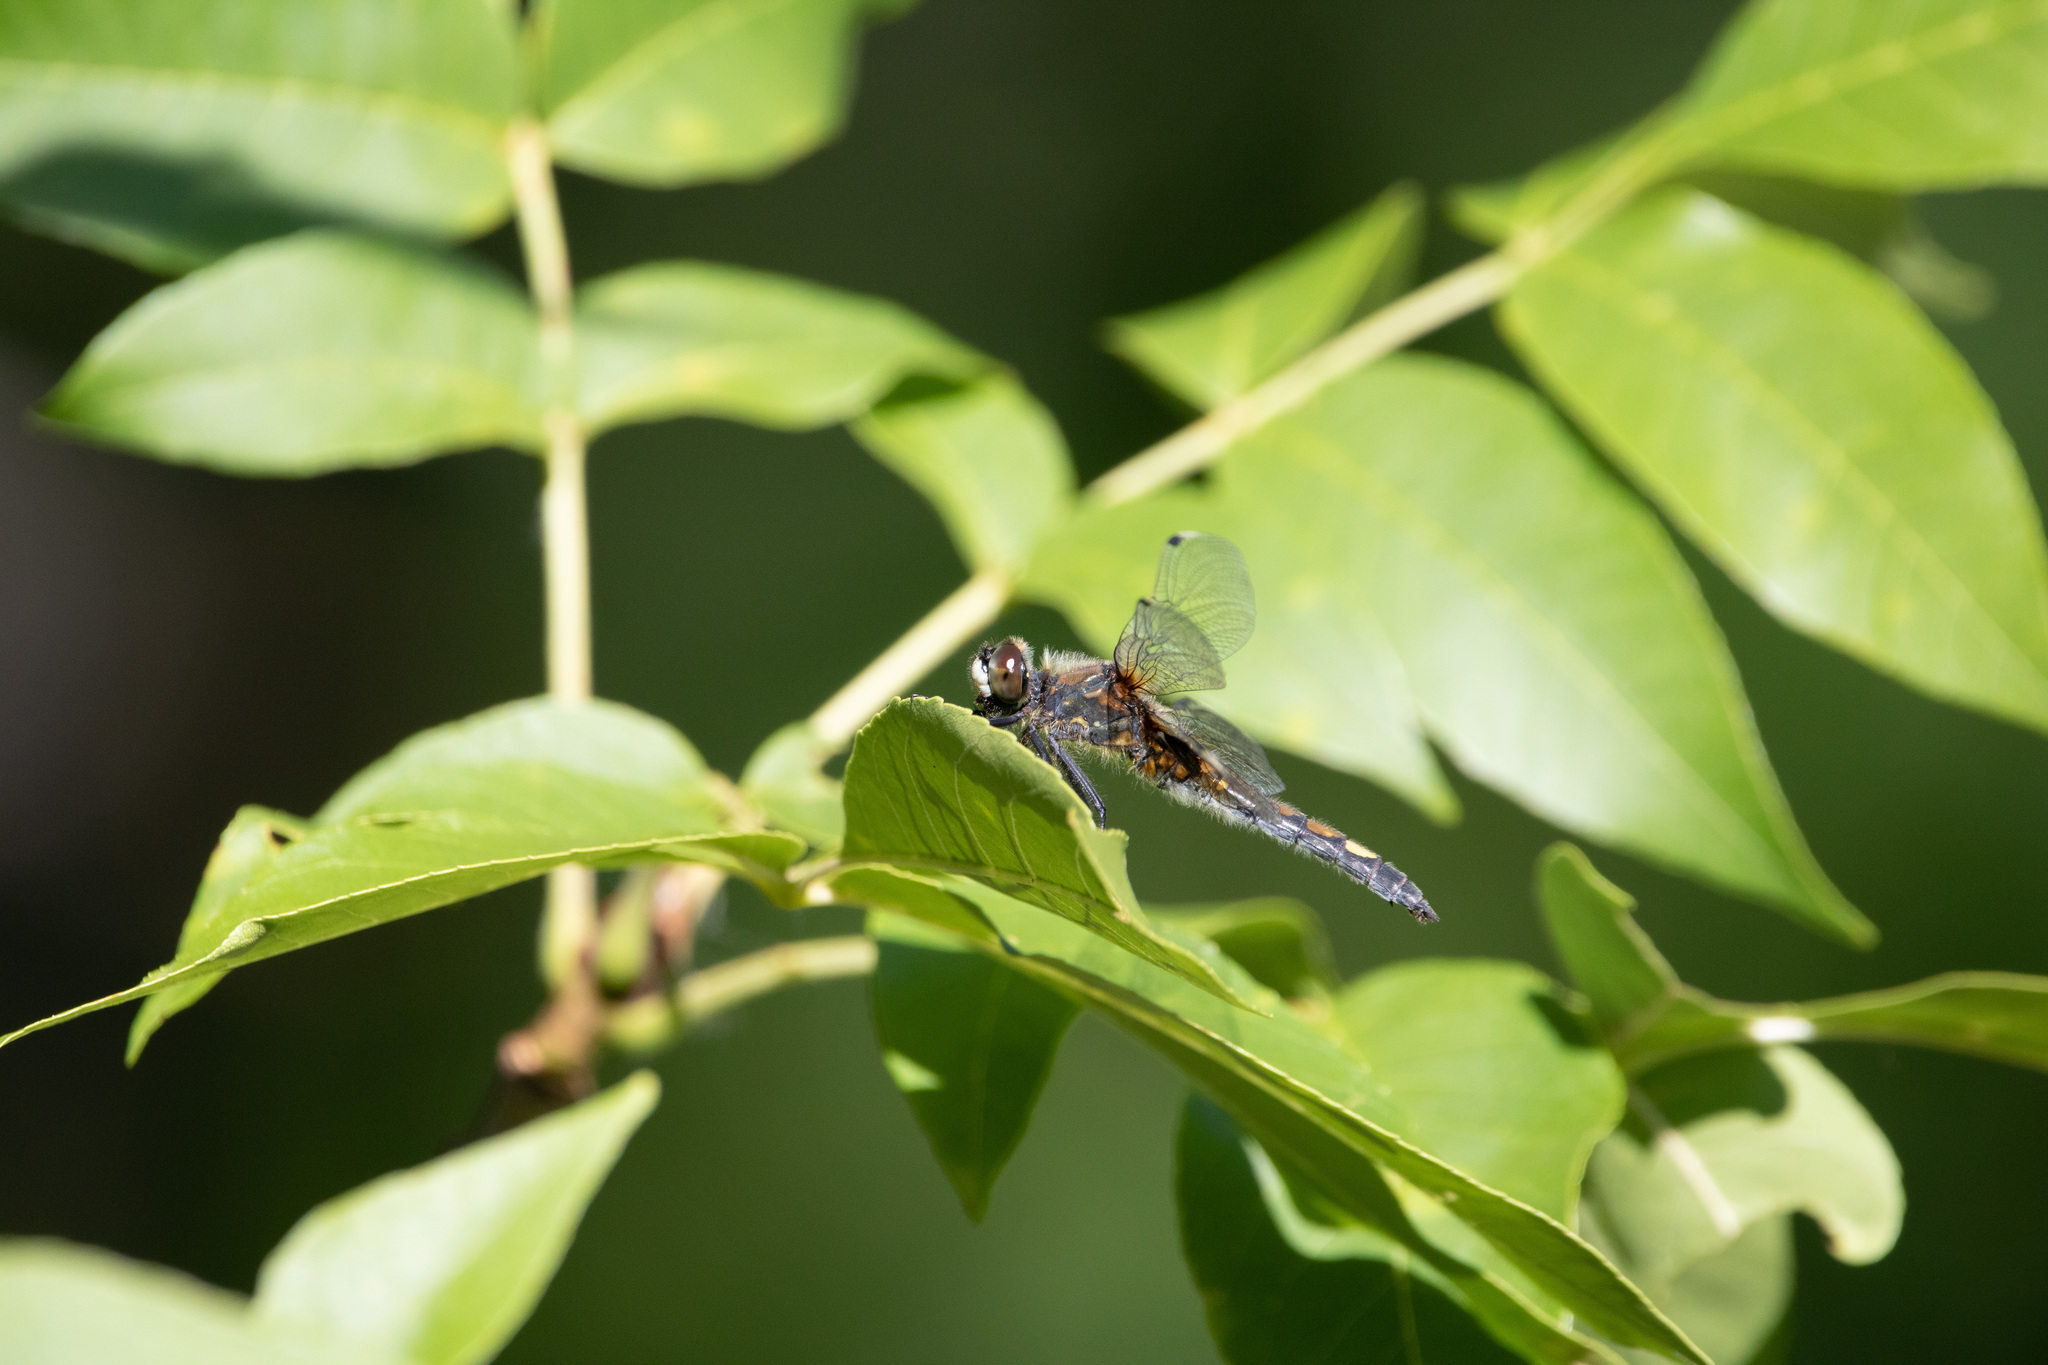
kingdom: Animalia
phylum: Arthropoda
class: Insecta
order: Odonata
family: Libellulidae
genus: Leucorrhinia
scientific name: Leucorrhinia pectoralis
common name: Yellow-spotted whiteface
